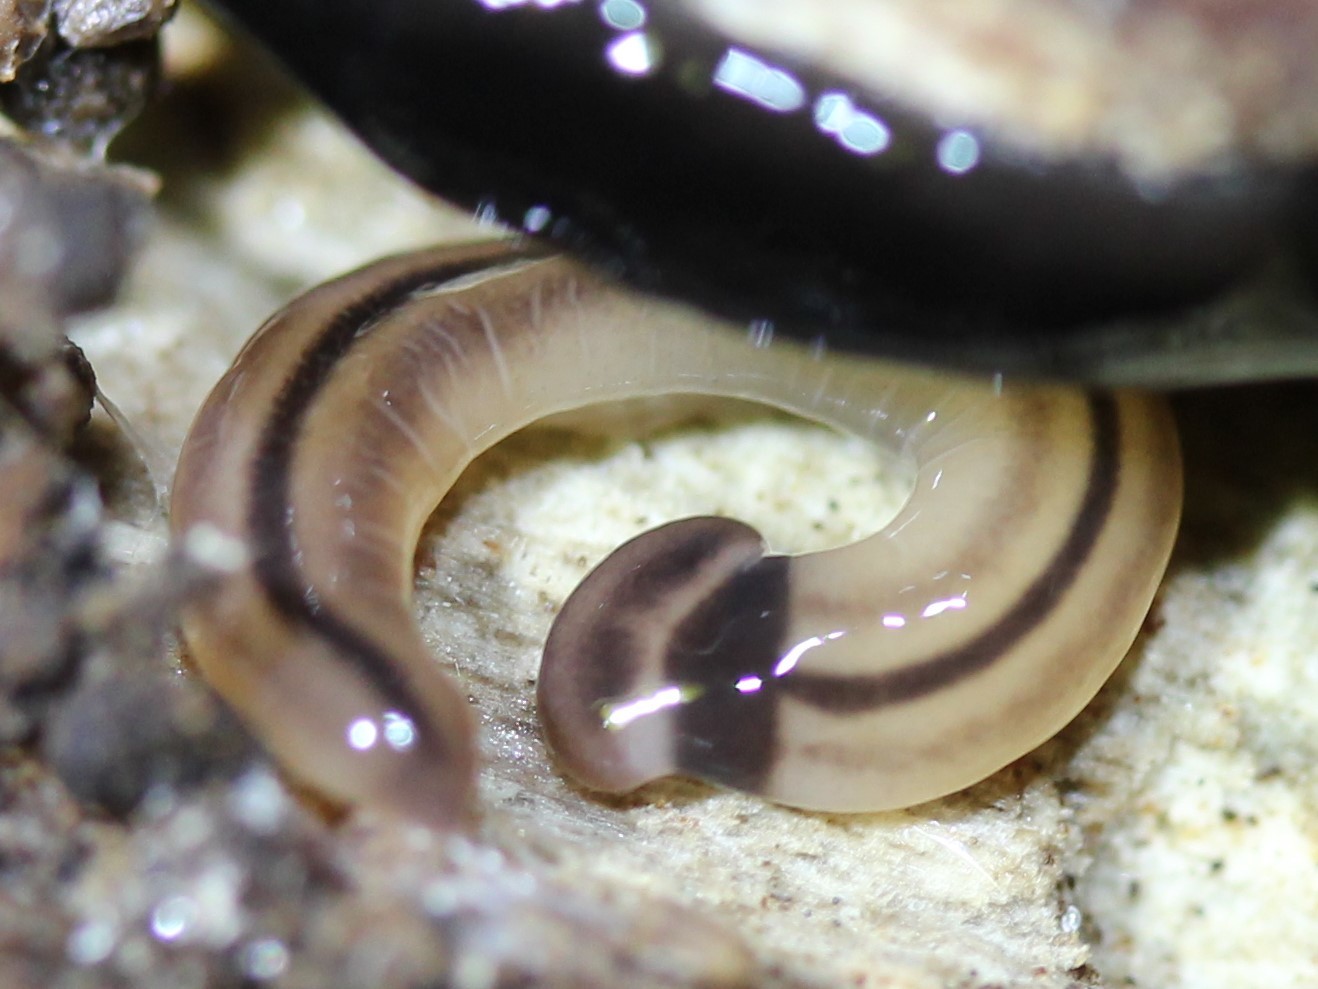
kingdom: Animalia
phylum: Platyhelminthes
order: Tricladida
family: Geoplanidae
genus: Bipalium
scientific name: Bipalium vagum
